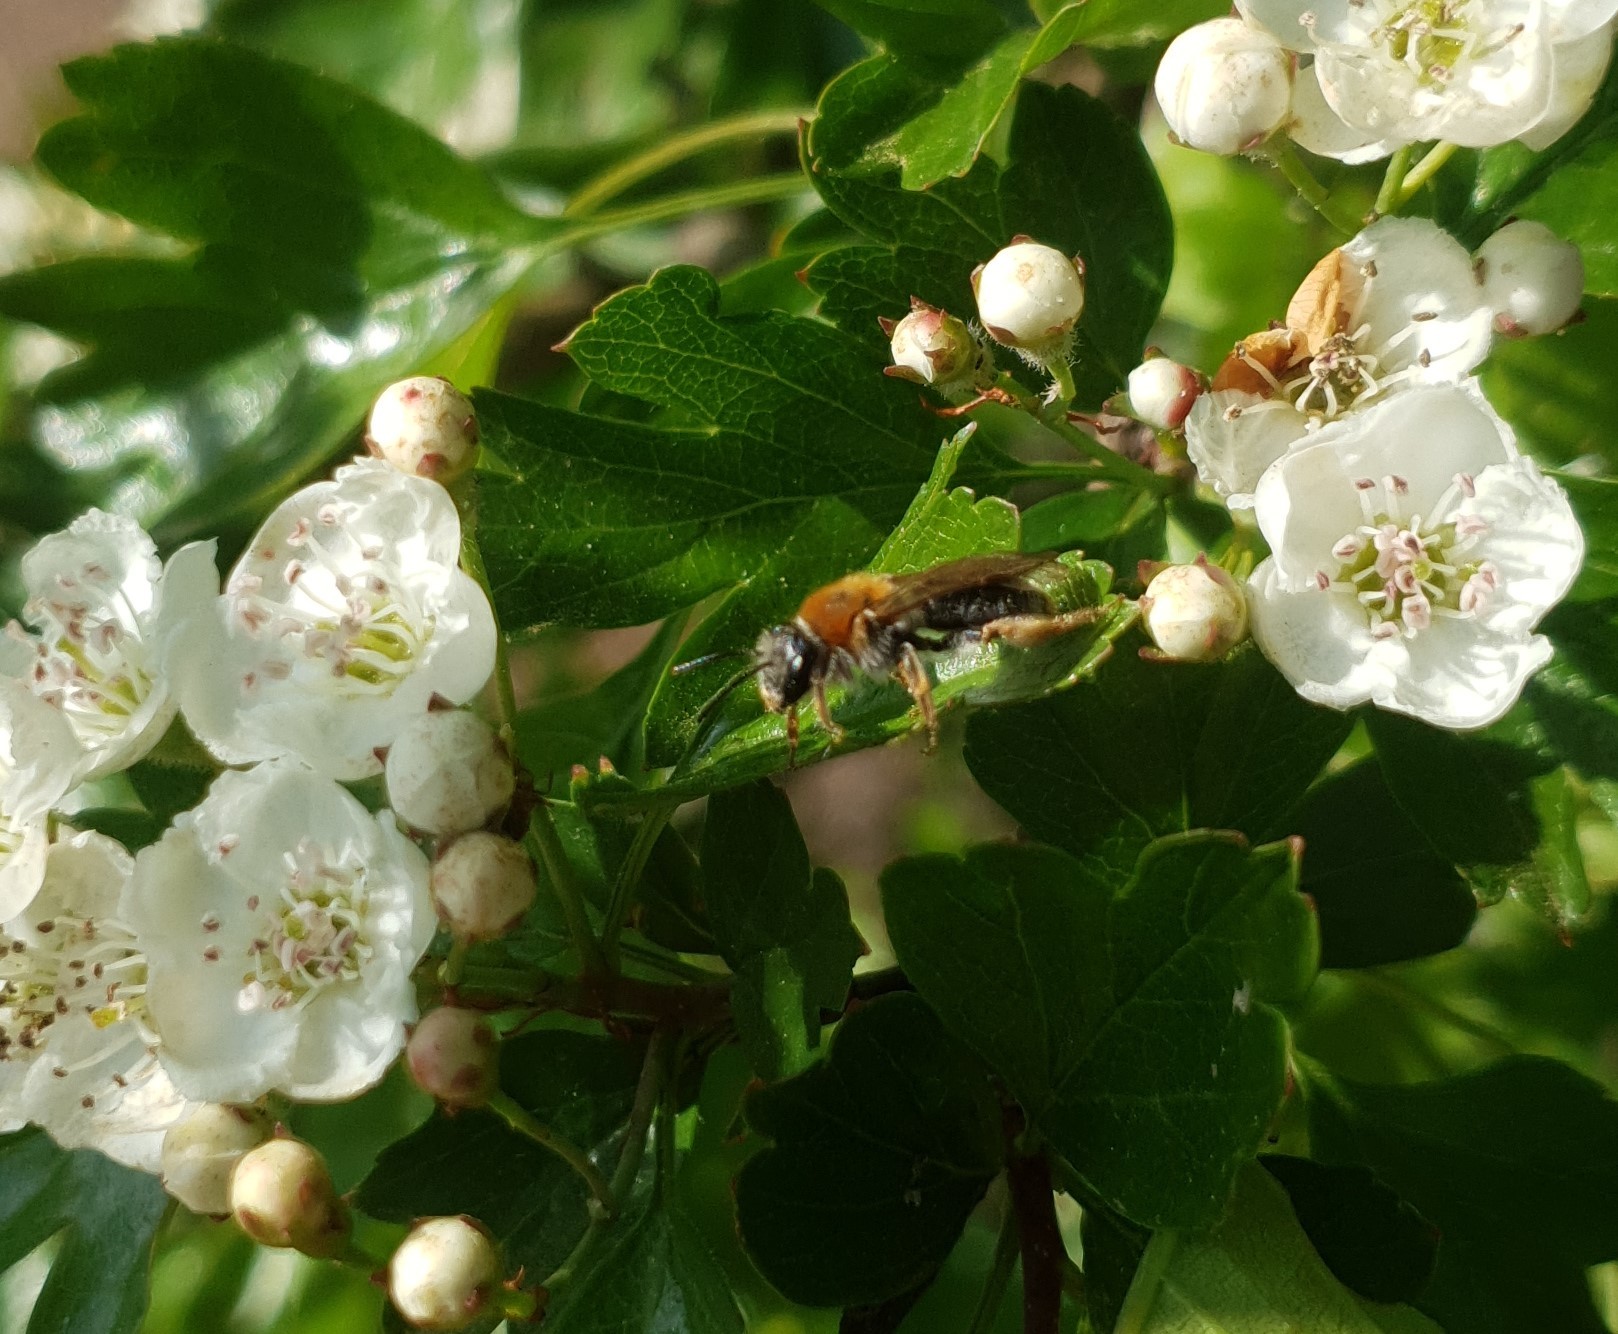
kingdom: Animalia
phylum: Arthropoda
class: Insecta
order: Hymenoptera
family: Andrenidae
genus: Andrena
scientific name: Andrena haemorrhoa
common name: Early mining bee
